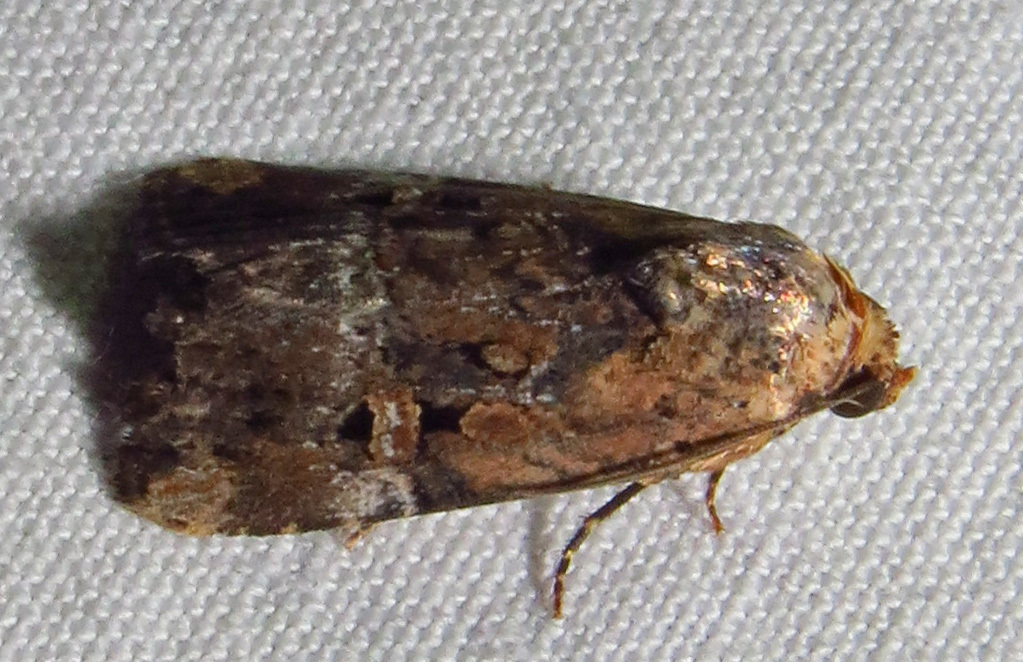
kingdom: Animalia
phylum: Arthropoda
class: Insecta
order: Lepidoptera
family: Noctuidae
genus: Elaphria
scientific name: Elaphria chalcedonia
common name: Chalcedony midget
